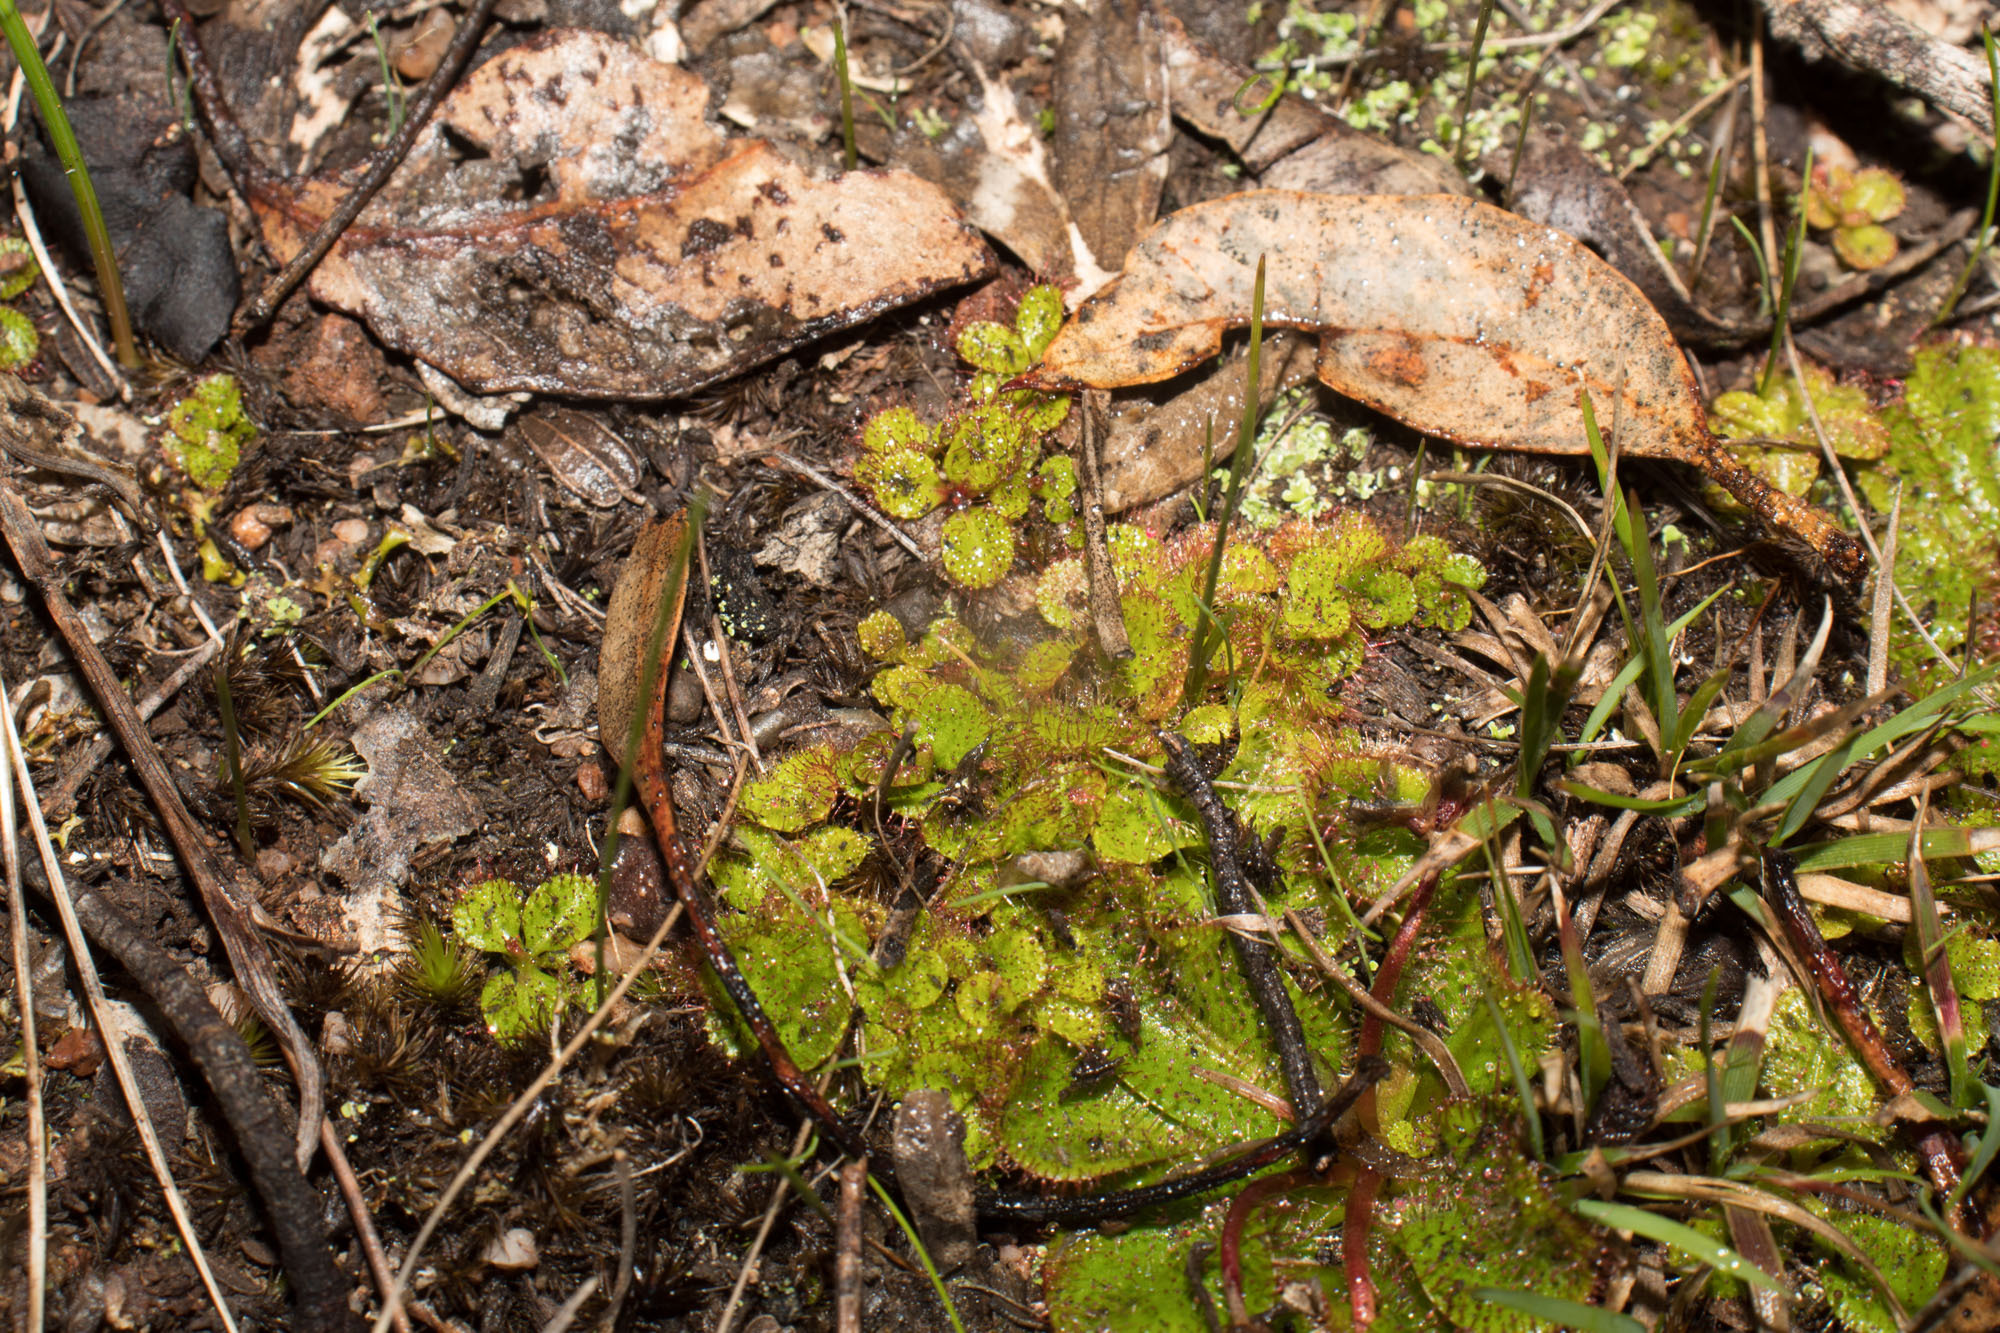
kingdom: Plantae
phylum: Tracheophyta
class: Magnoliopsida
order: Caryophyllales
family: Droseraceae
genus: Drosera
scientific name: Drosera tubaestylis
